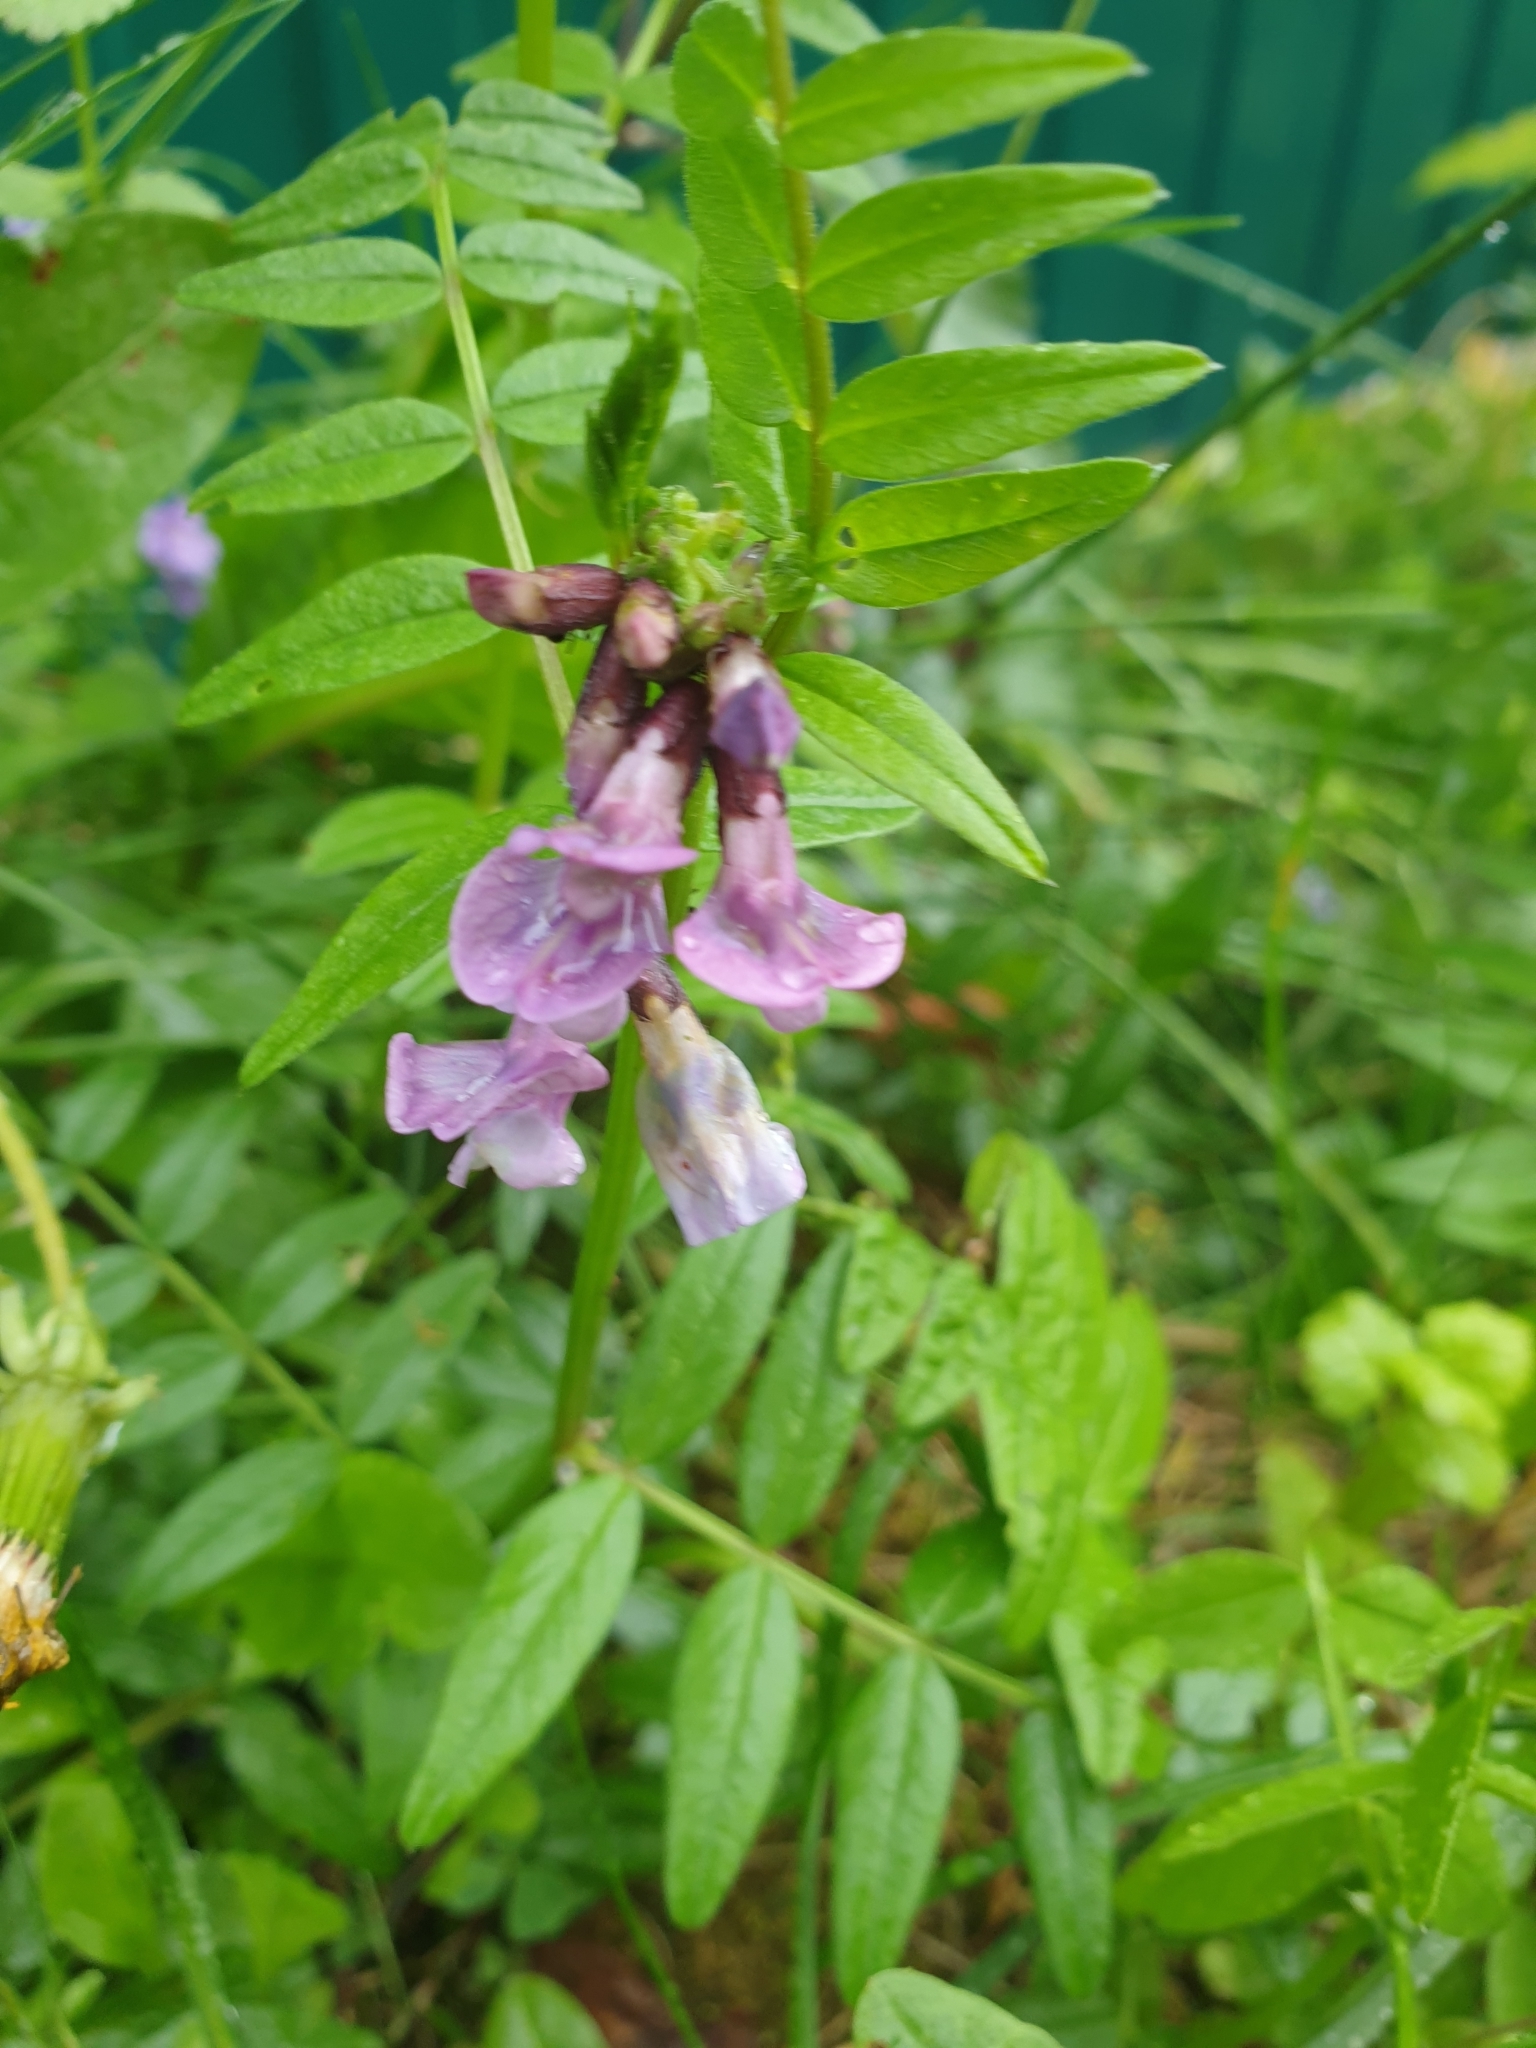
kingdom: Plantae
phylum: Tracheophyta
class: Magnoliopsida
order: Fabales
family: Fabaceae
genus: Vicia
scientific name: Vicia sepium
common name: Bush vetch
